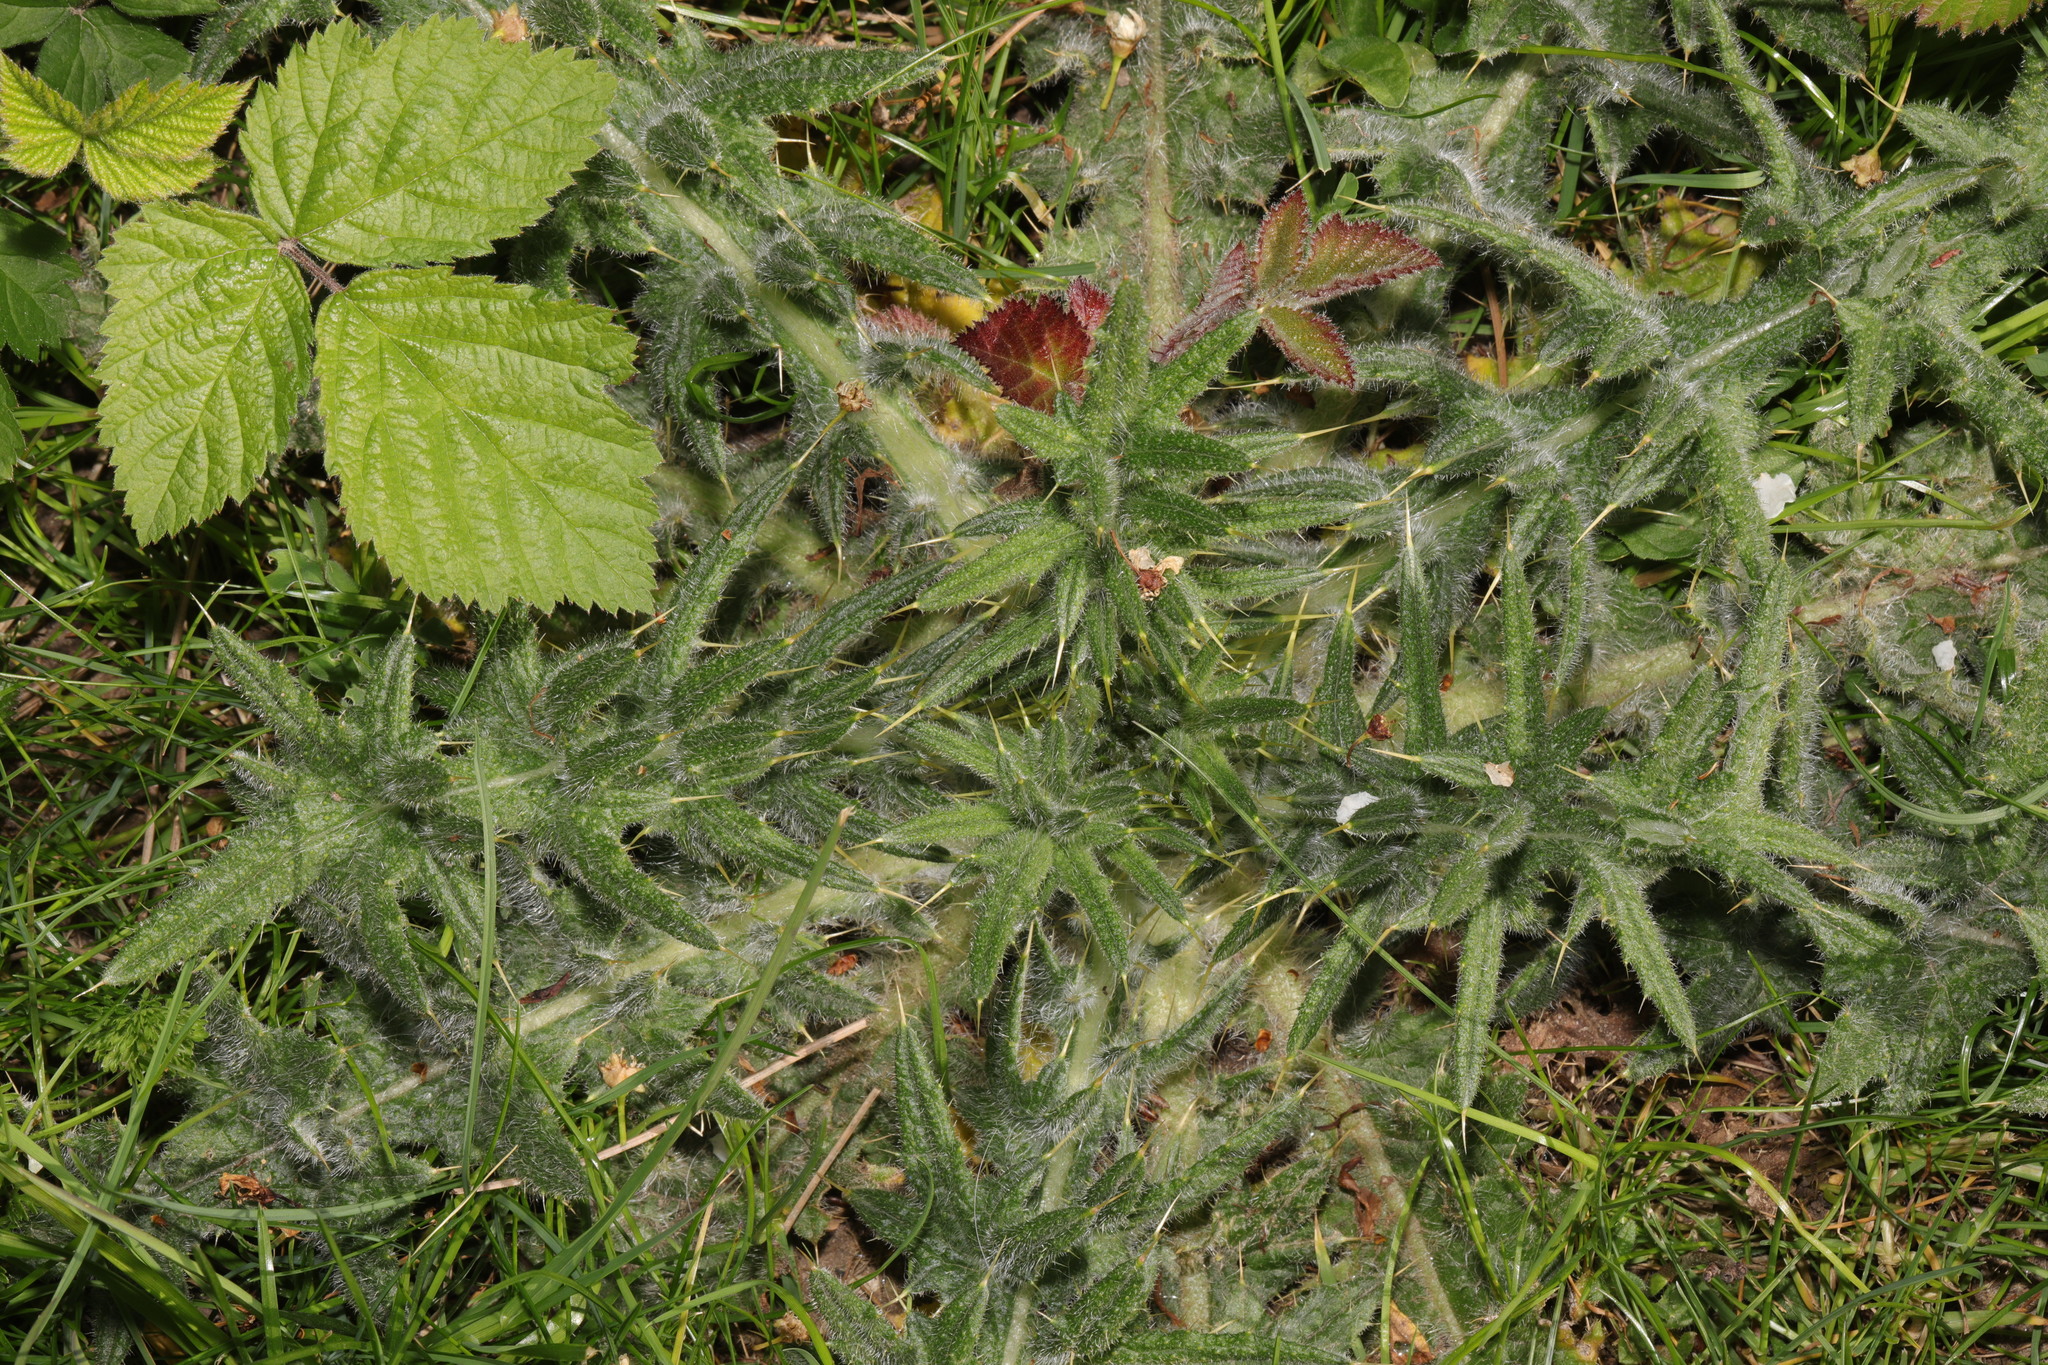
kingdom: Plantae
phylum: Tracheophyta
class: Magnoliopsida
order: Asterales
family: Asteraceae
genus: Cirsium
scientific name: Cirsium vulgare
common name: Bull thistle
